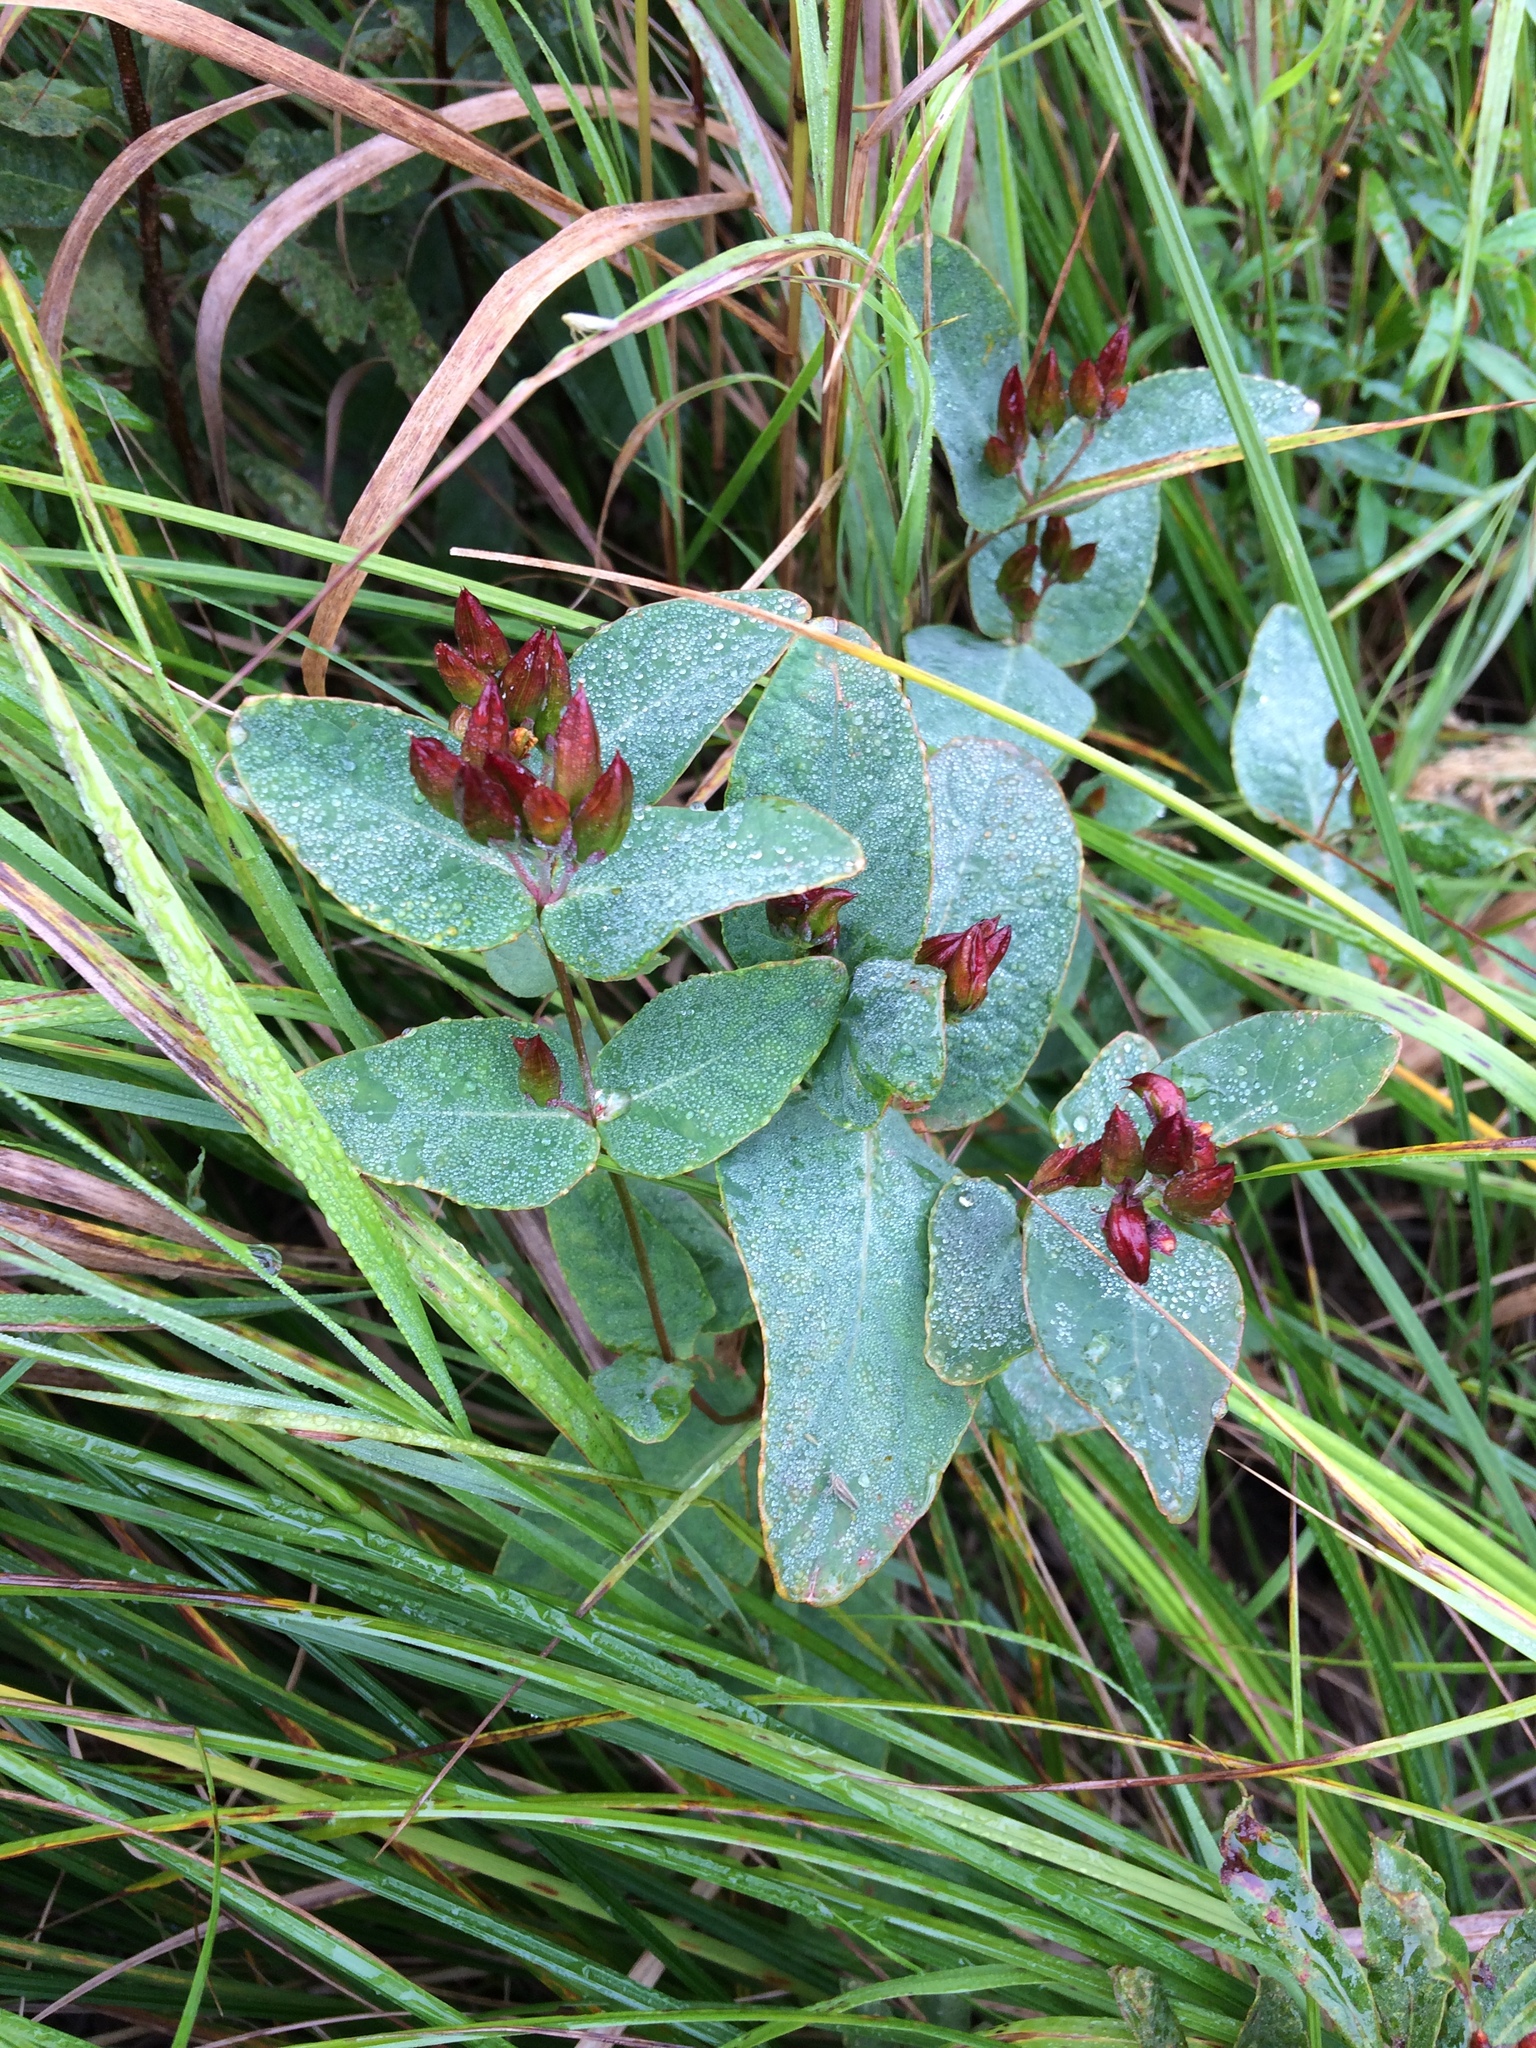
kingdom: Plantae
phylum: Tracheophyta
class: Magnoliopsida
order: Malpighiales
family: Hypericaceae
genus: Triadenum
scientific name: Triadenum virginicum
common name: Marsh st. john's-wort
